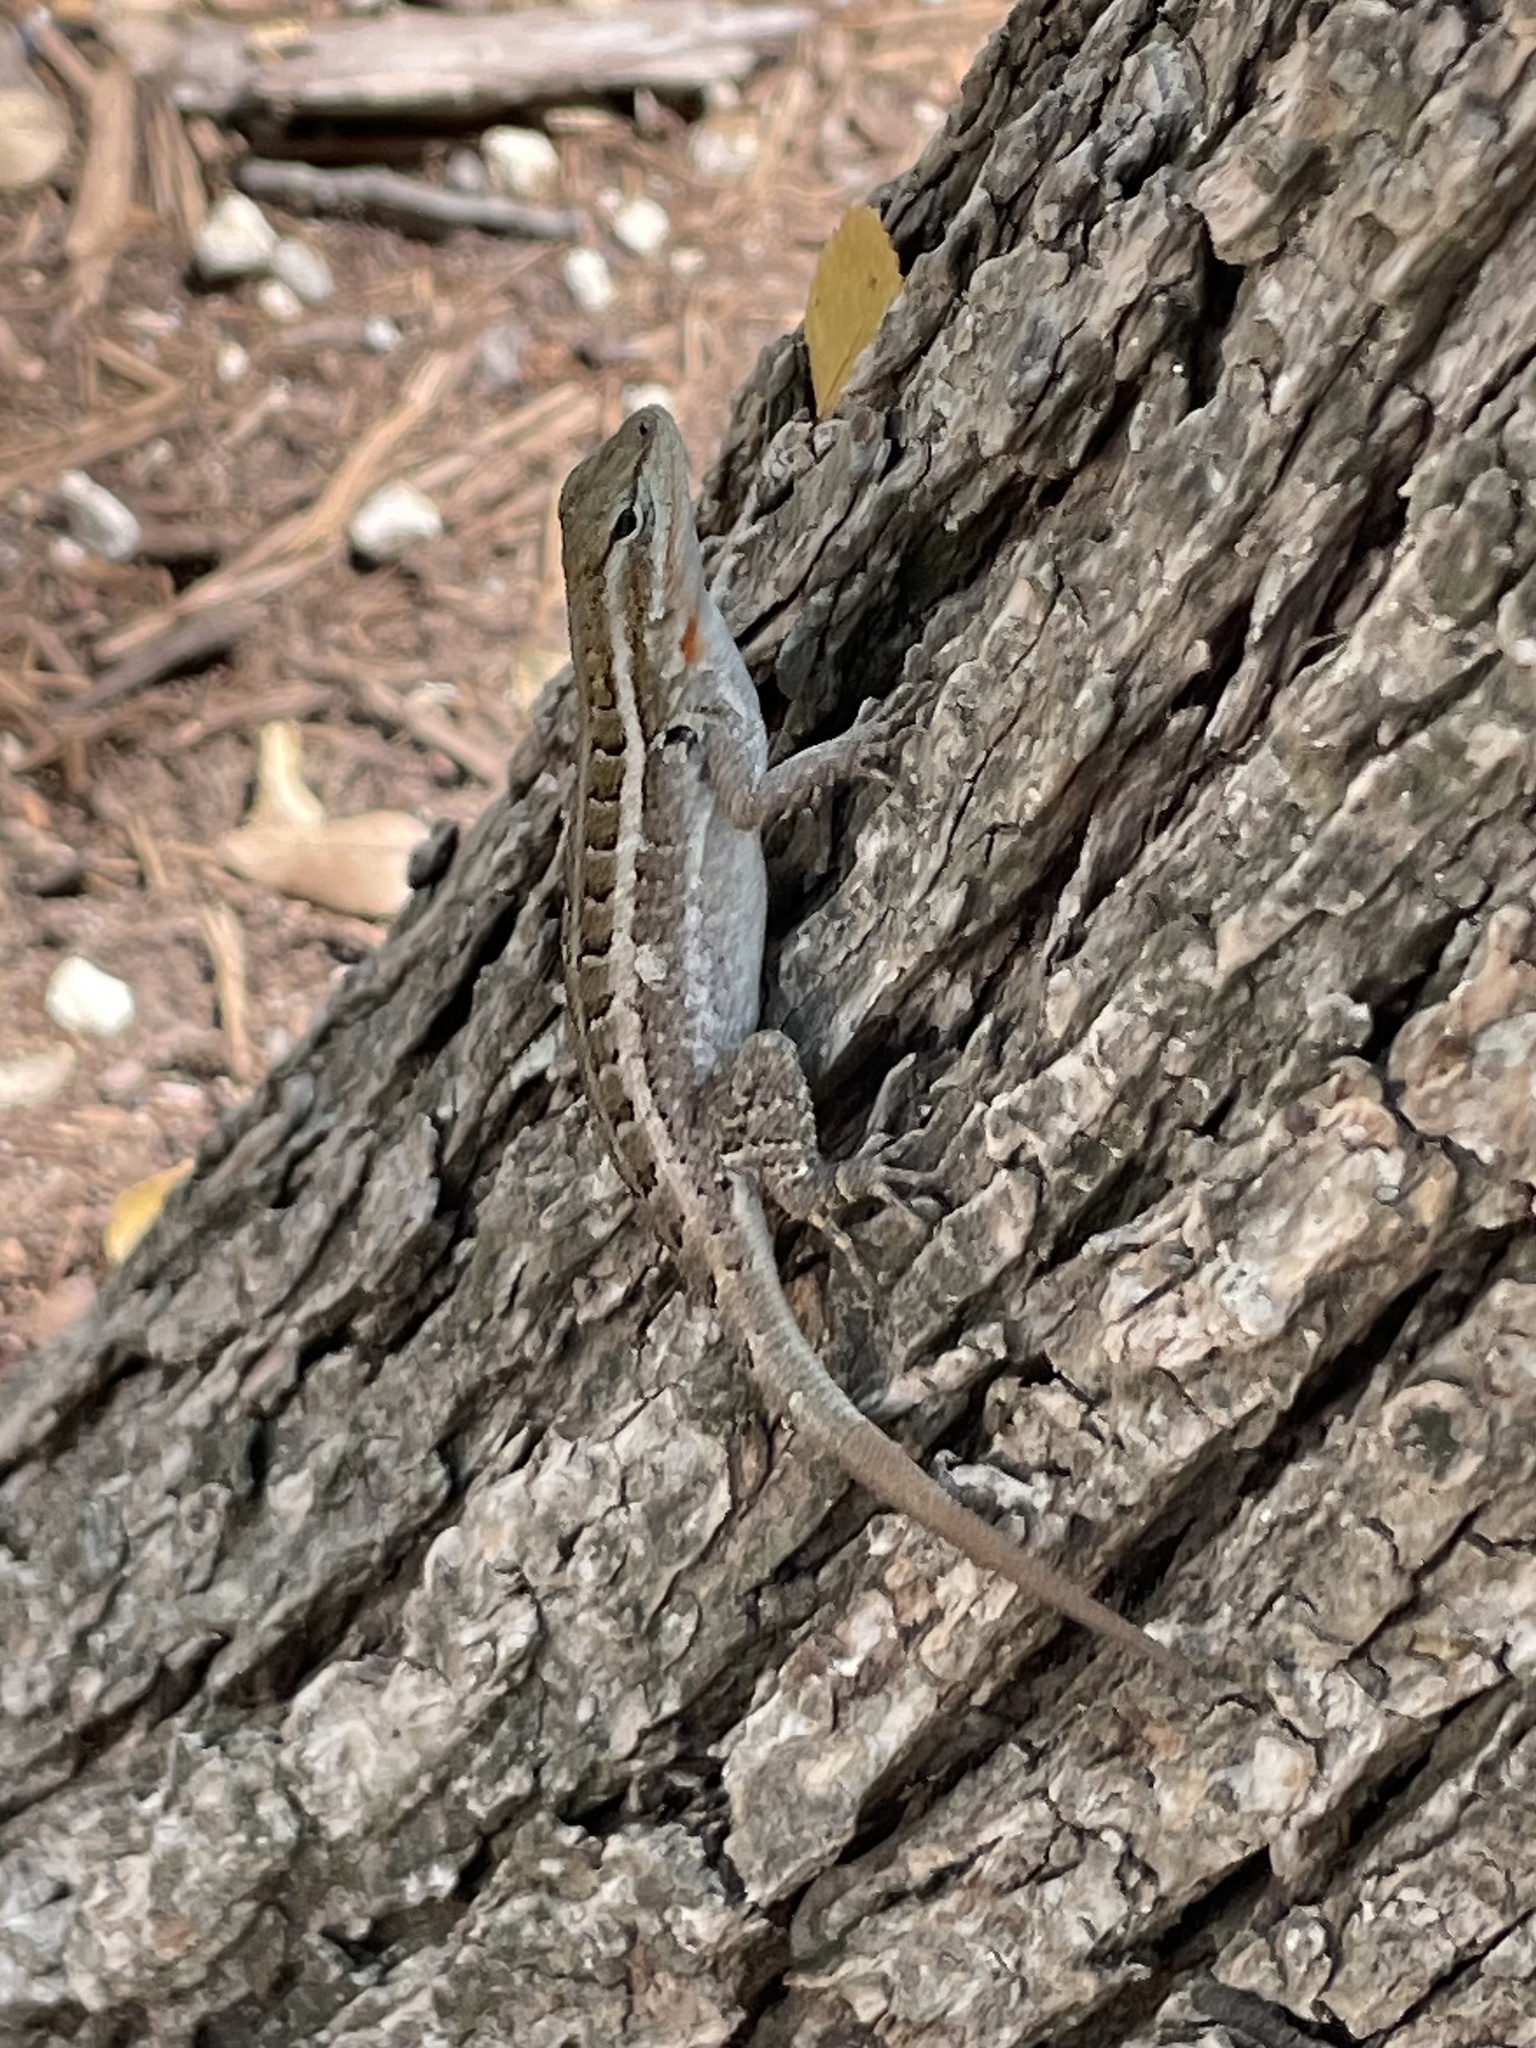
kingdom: Animalia
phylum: Chordata
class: Squamata
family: Phrynosomatidae
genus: Sceloporus
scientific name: Sceloporus variabilis
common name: Rosebelly lizard
